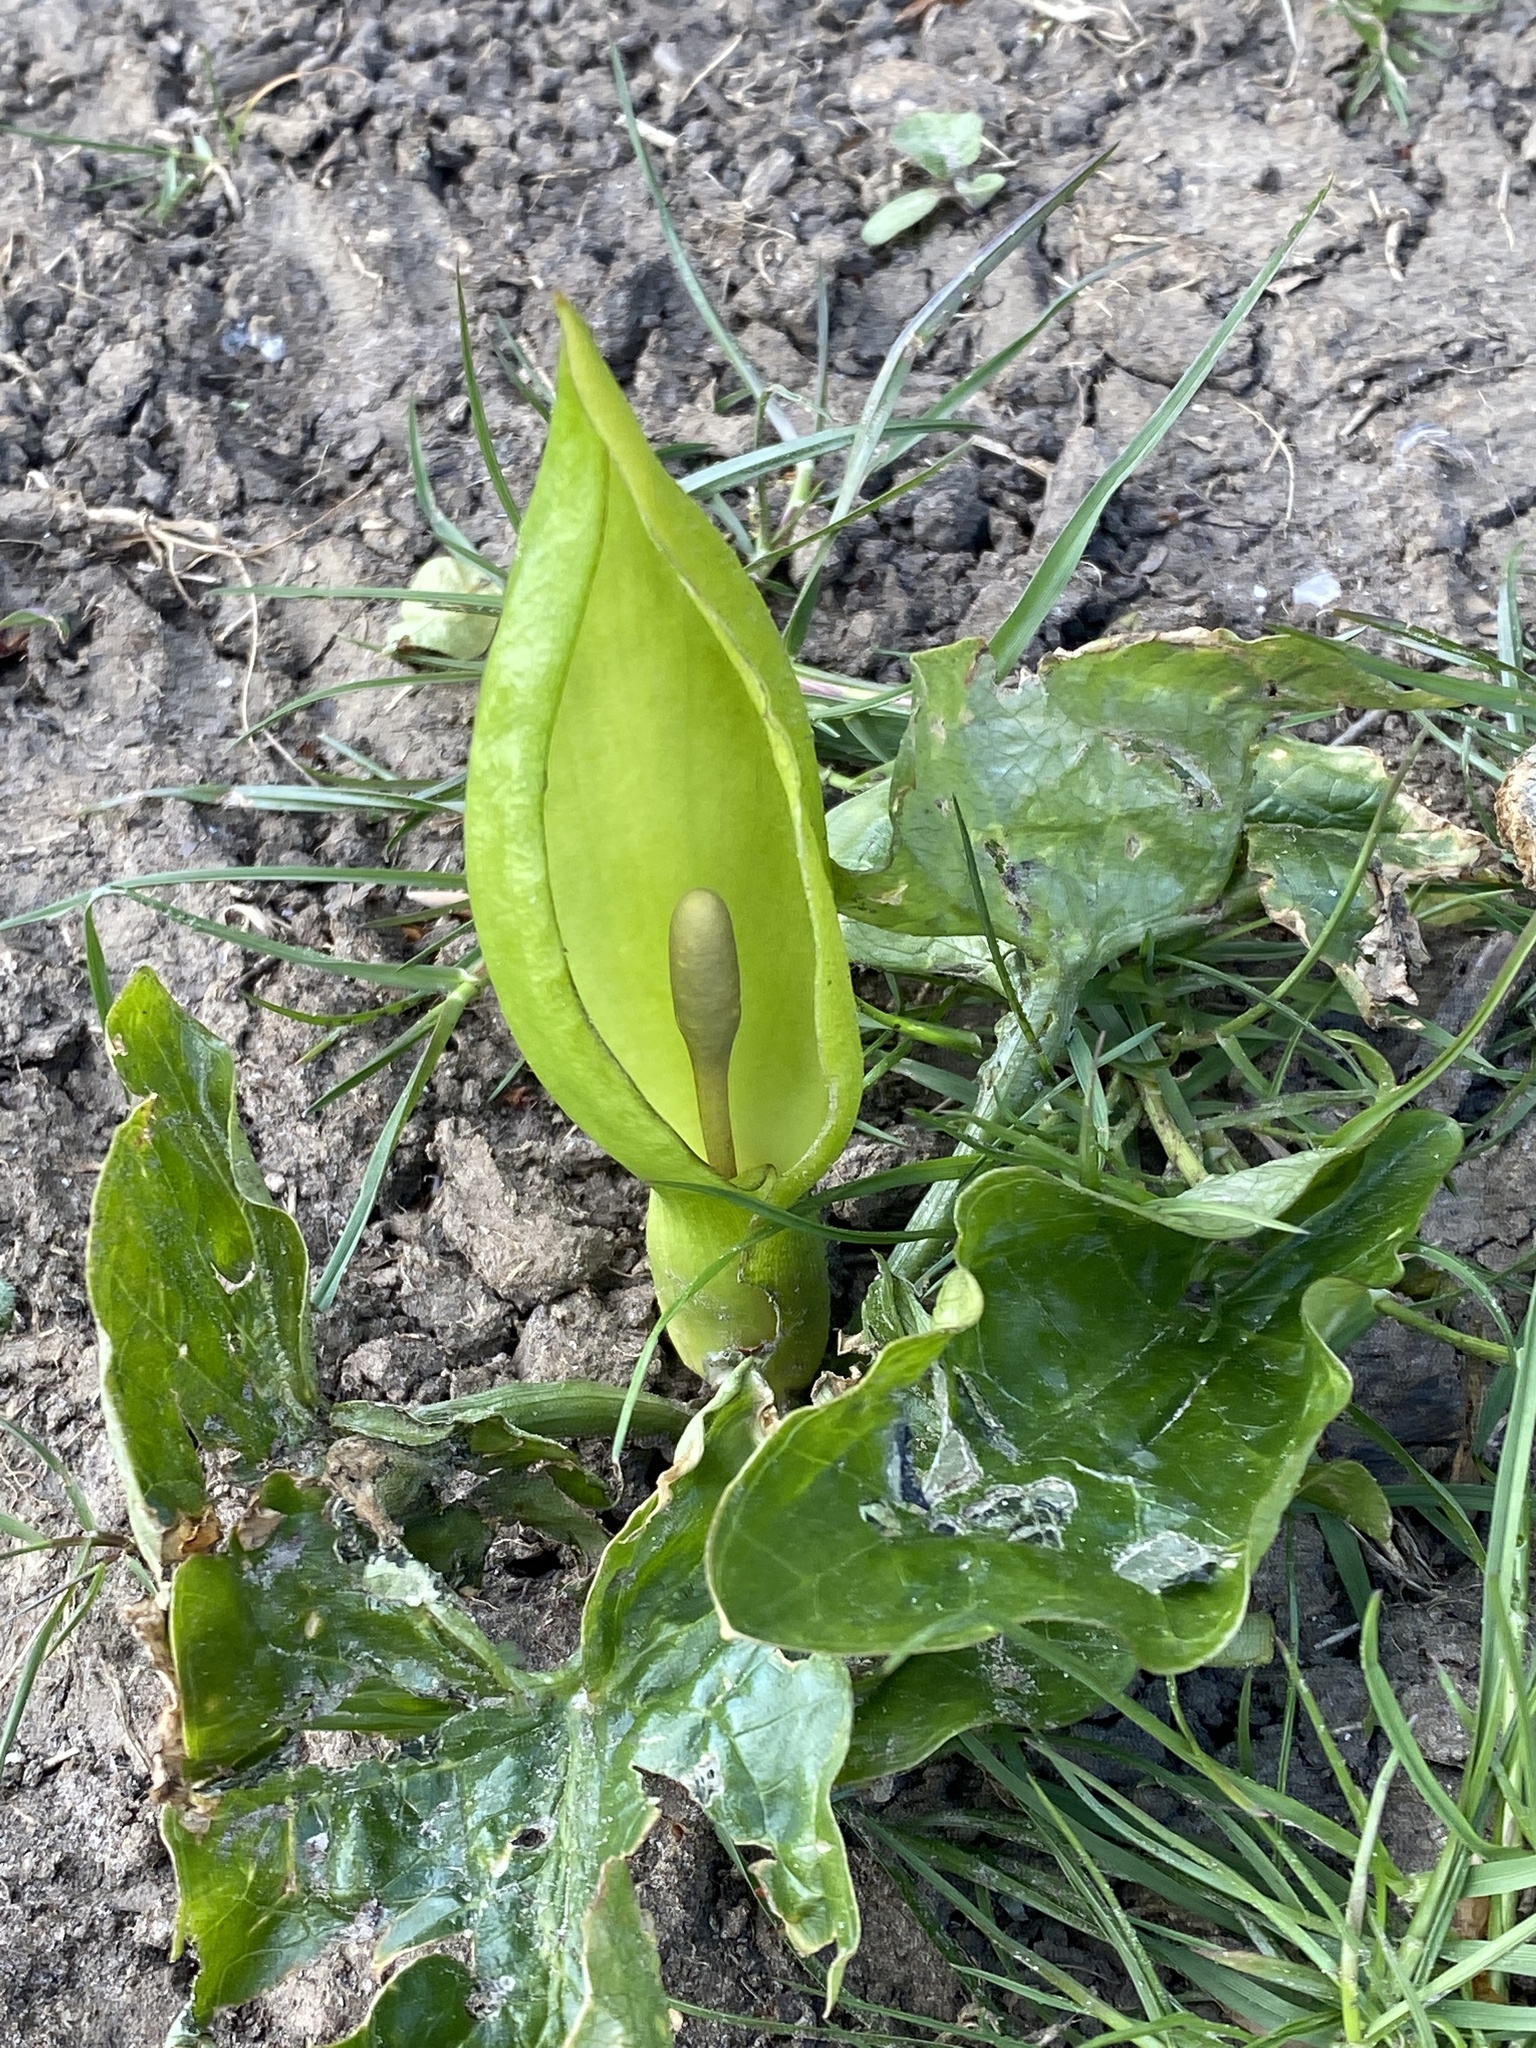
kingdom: Plantae
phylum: Tracheophyta
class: Liliopsida
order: Alismatales
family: Araceae
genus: Arum
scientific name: Arum maculatum
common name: Lords-and-ladies
